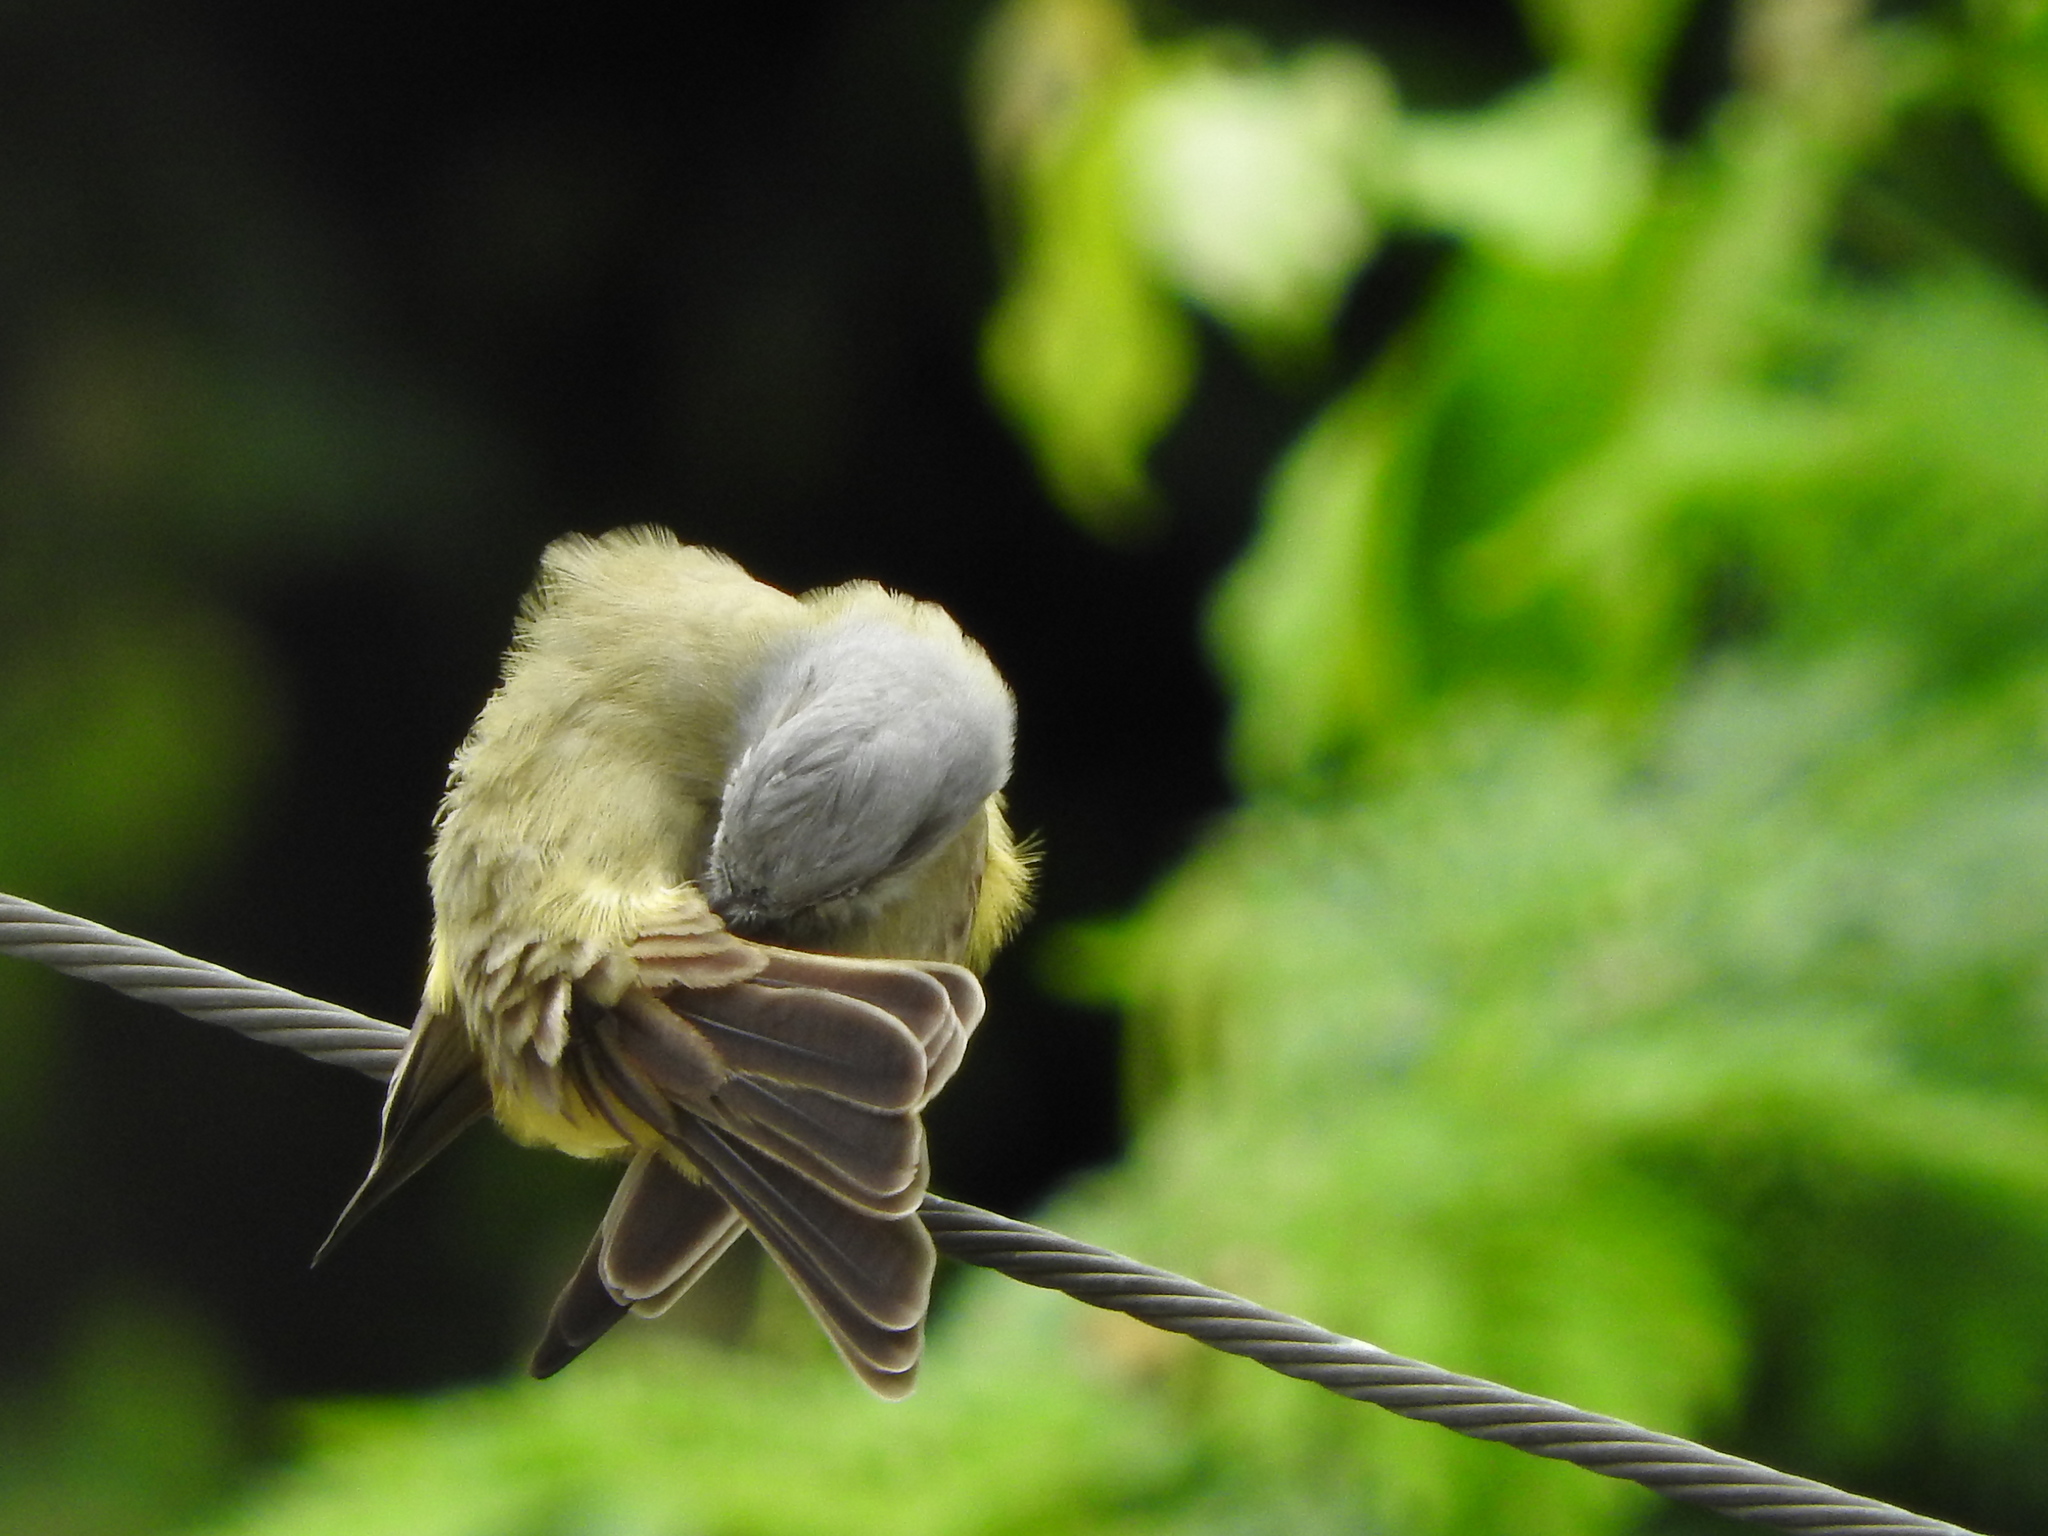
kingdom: Animalia
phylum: Chordata
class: Aves
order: Passeriformes
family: Tyrannidae
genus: Tyrannus
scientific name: Tyrannus melancholicus
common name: Tropical kingbird
